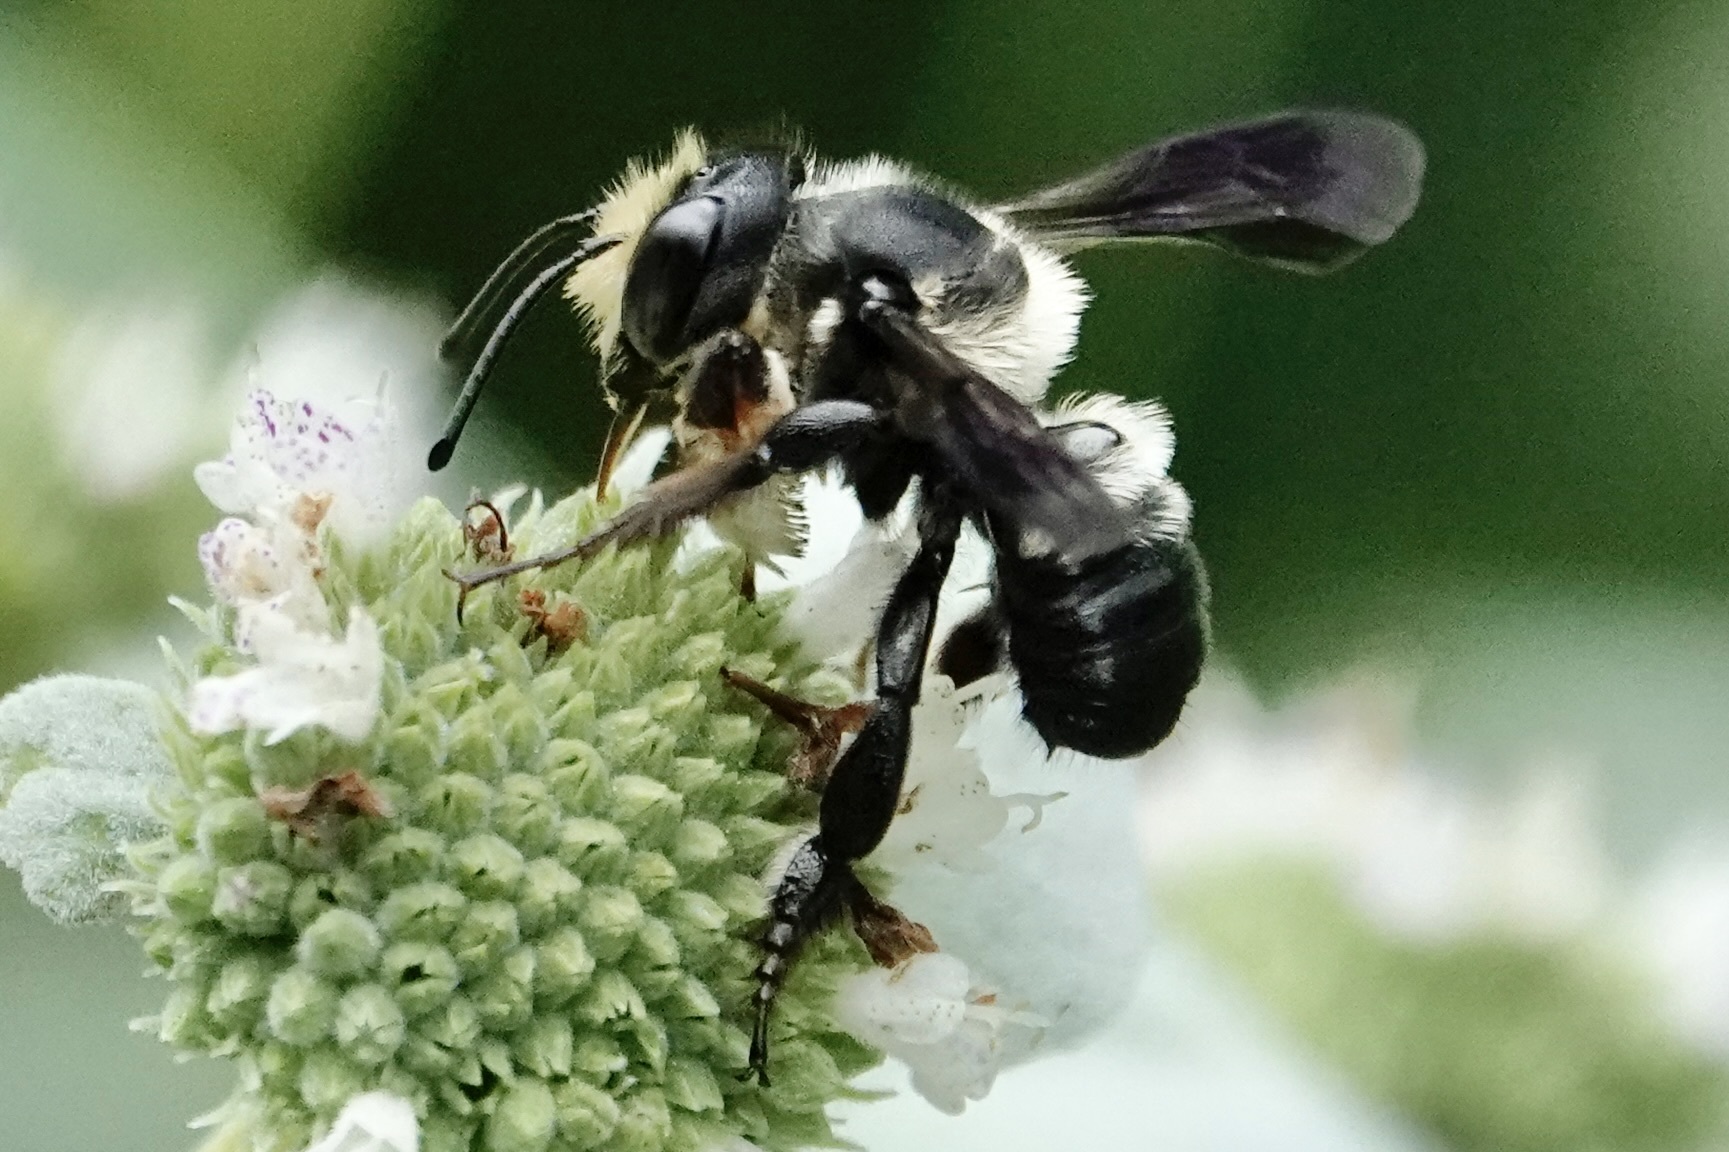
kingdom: Animalia
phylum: Arthropoda
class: Insecta
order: Hymenoptera
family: Megachilidae
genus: Megachile
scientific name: Megachile xylocopoides
